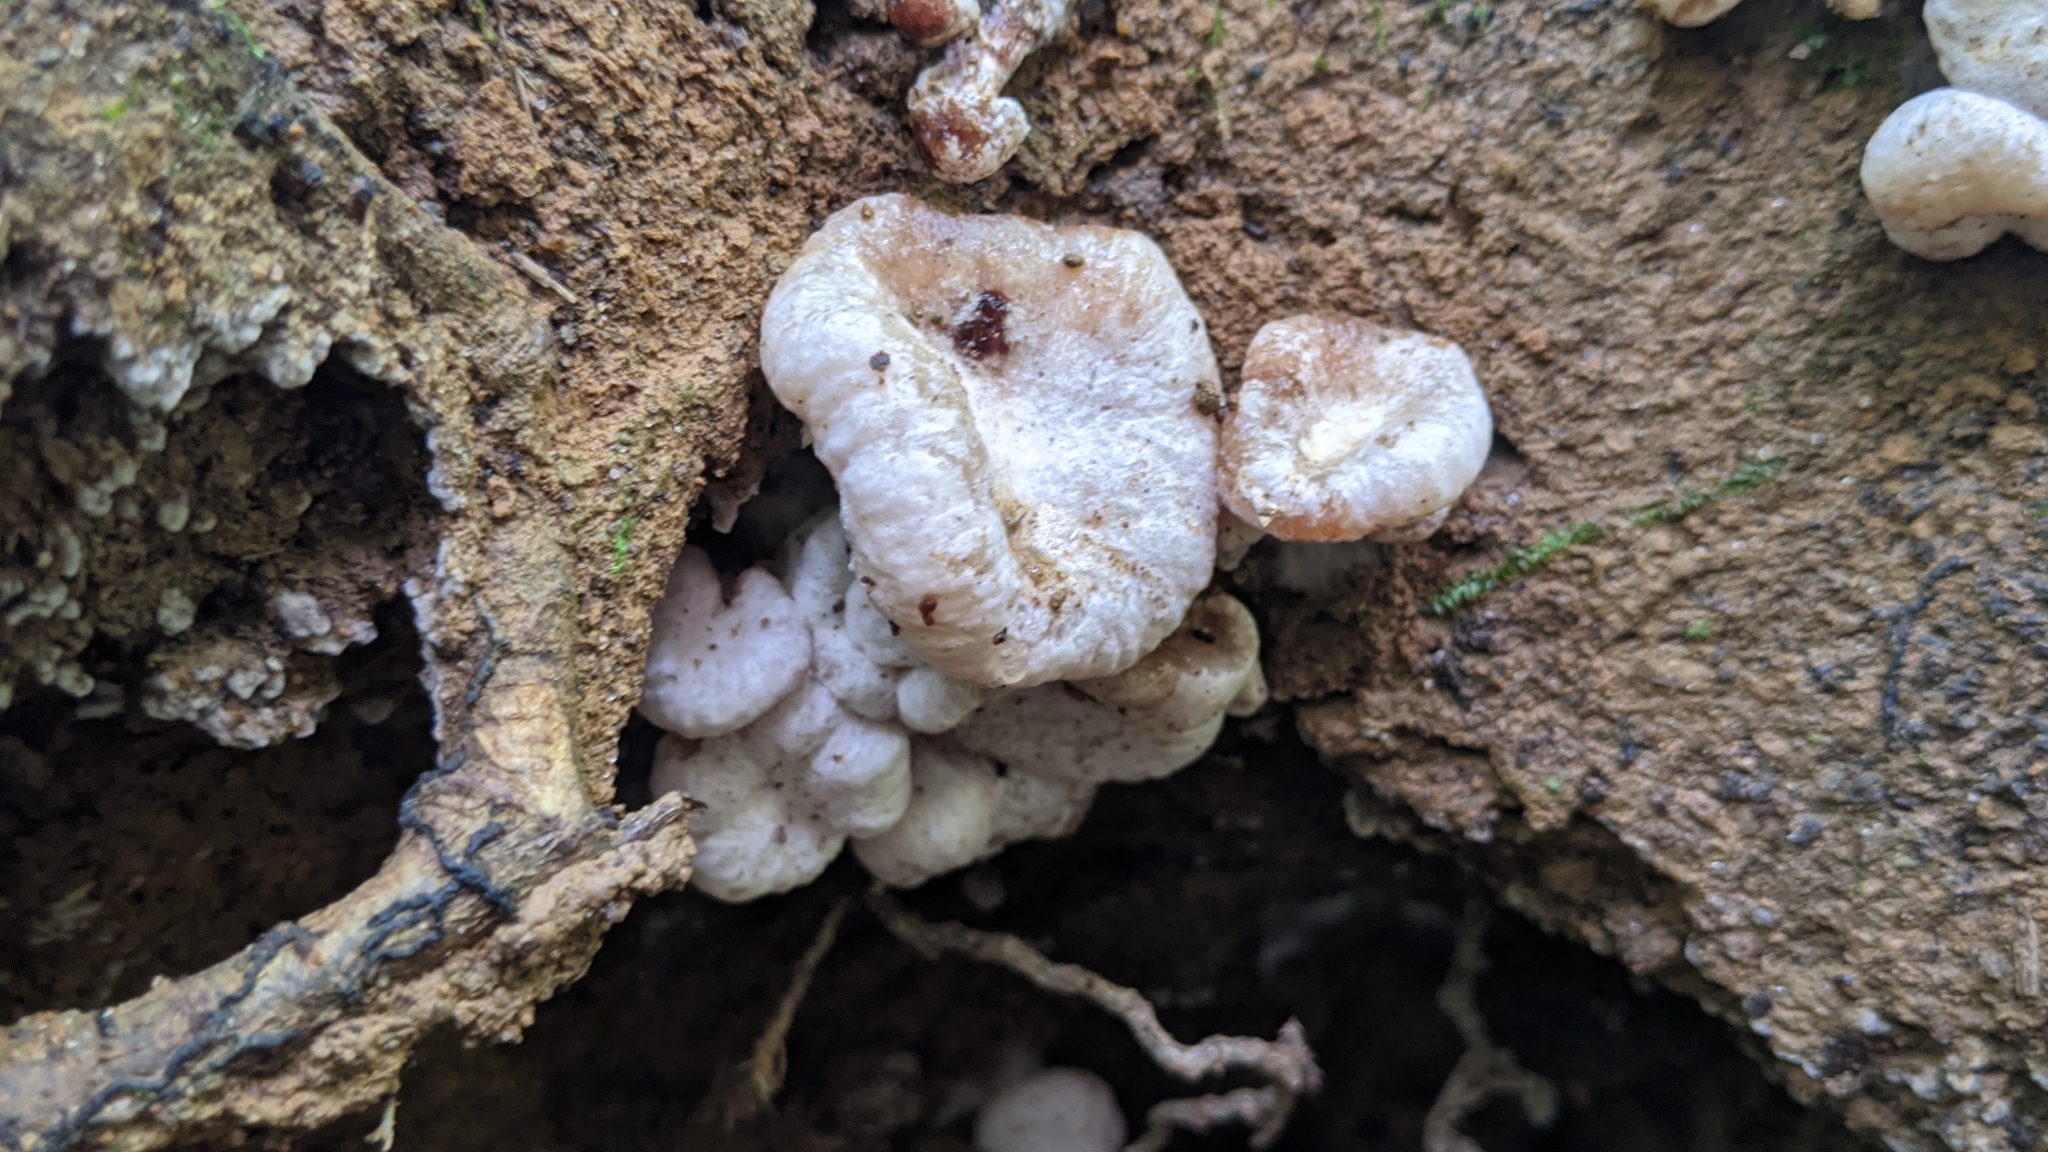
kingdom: Fungi
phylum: Basidiomycota
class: Agaricomycetes
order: Agaricales
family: Entolomataceae
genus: Entoloma
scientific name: Entoloma abortivum
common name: Aborted entoloma
